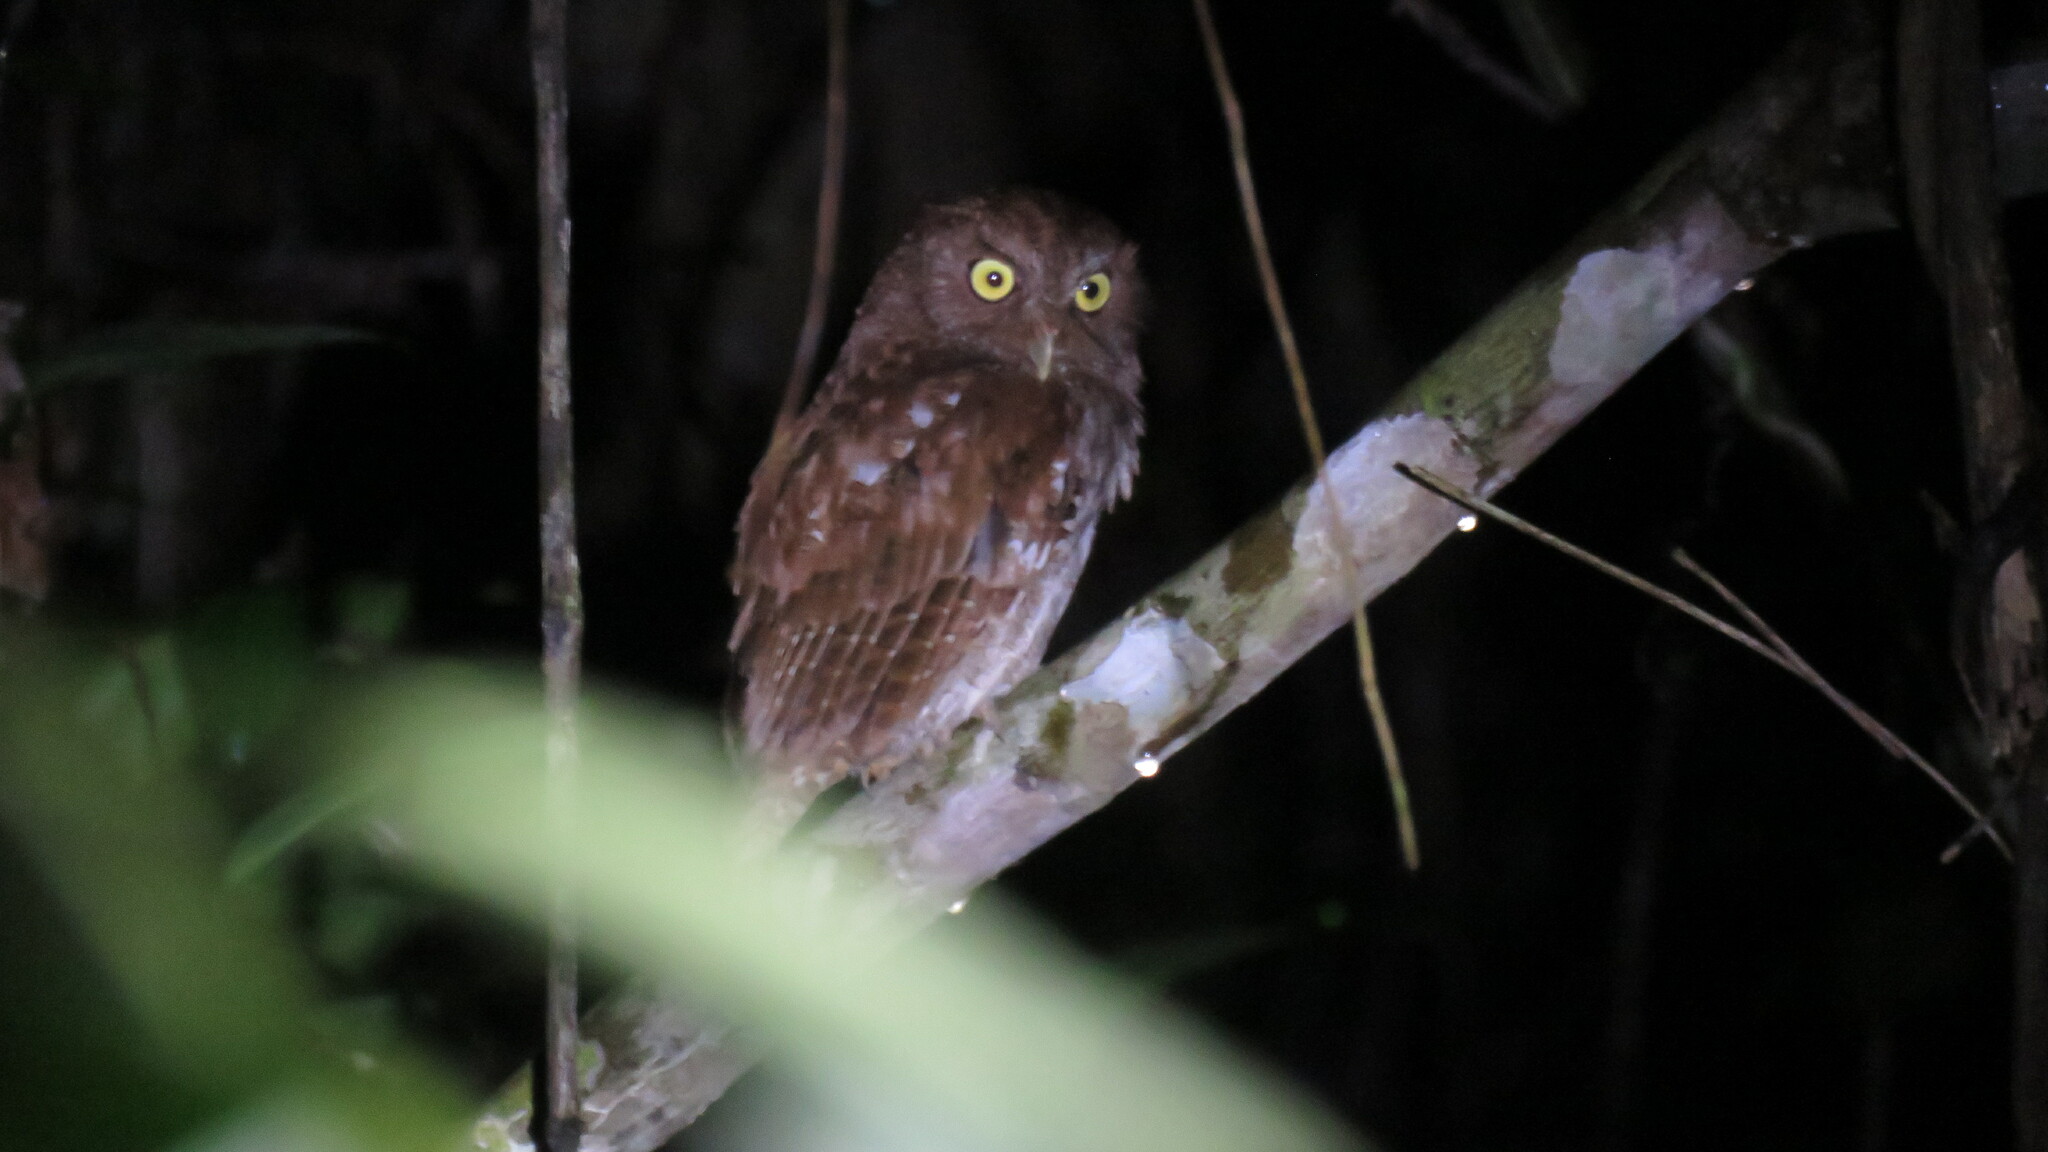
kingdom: Animalia
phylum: Chordata
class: Aves
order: Strigiformes
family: Strigidae
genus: Megascops
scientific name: Megascops guatemalae
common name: Vermiculated screech-owl
